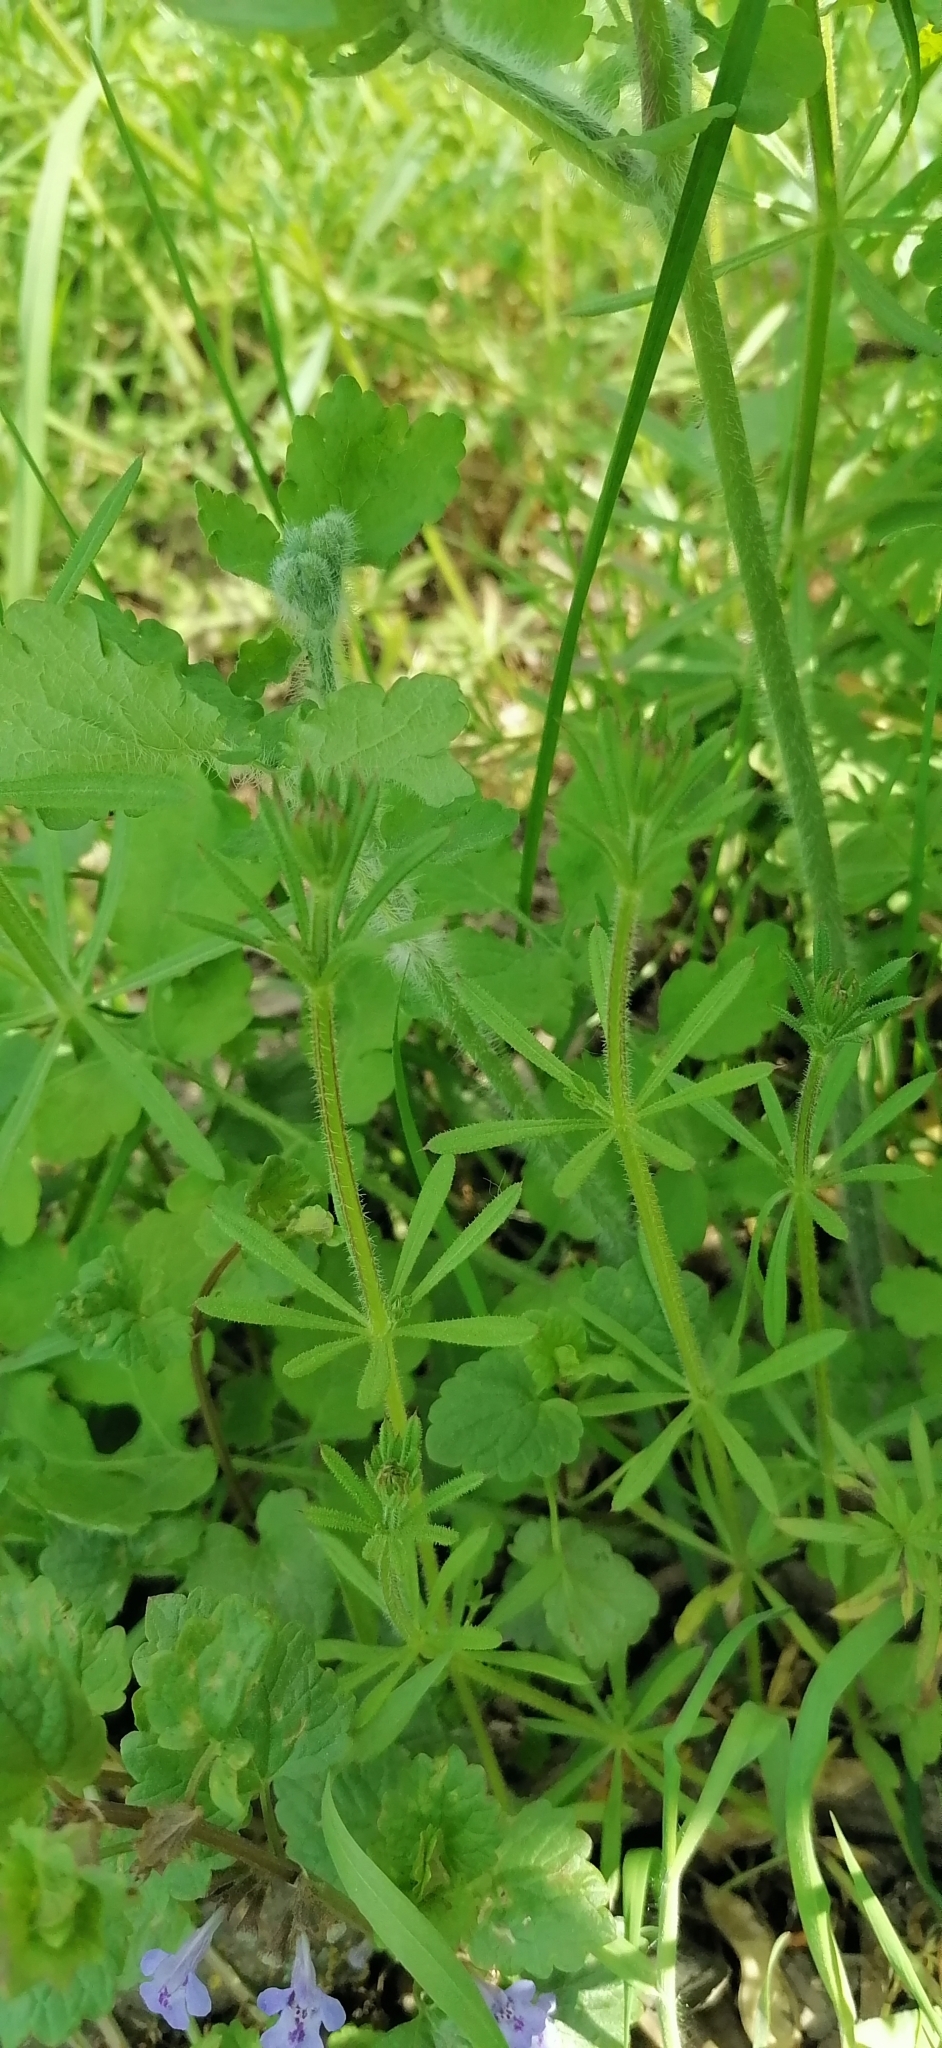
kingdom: Plantae
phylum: Tracheophyta
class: Magnoliopsida
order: Gentianales
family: Rubiaceae
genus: Galium
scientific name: Galium aparine
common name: Cleavers
